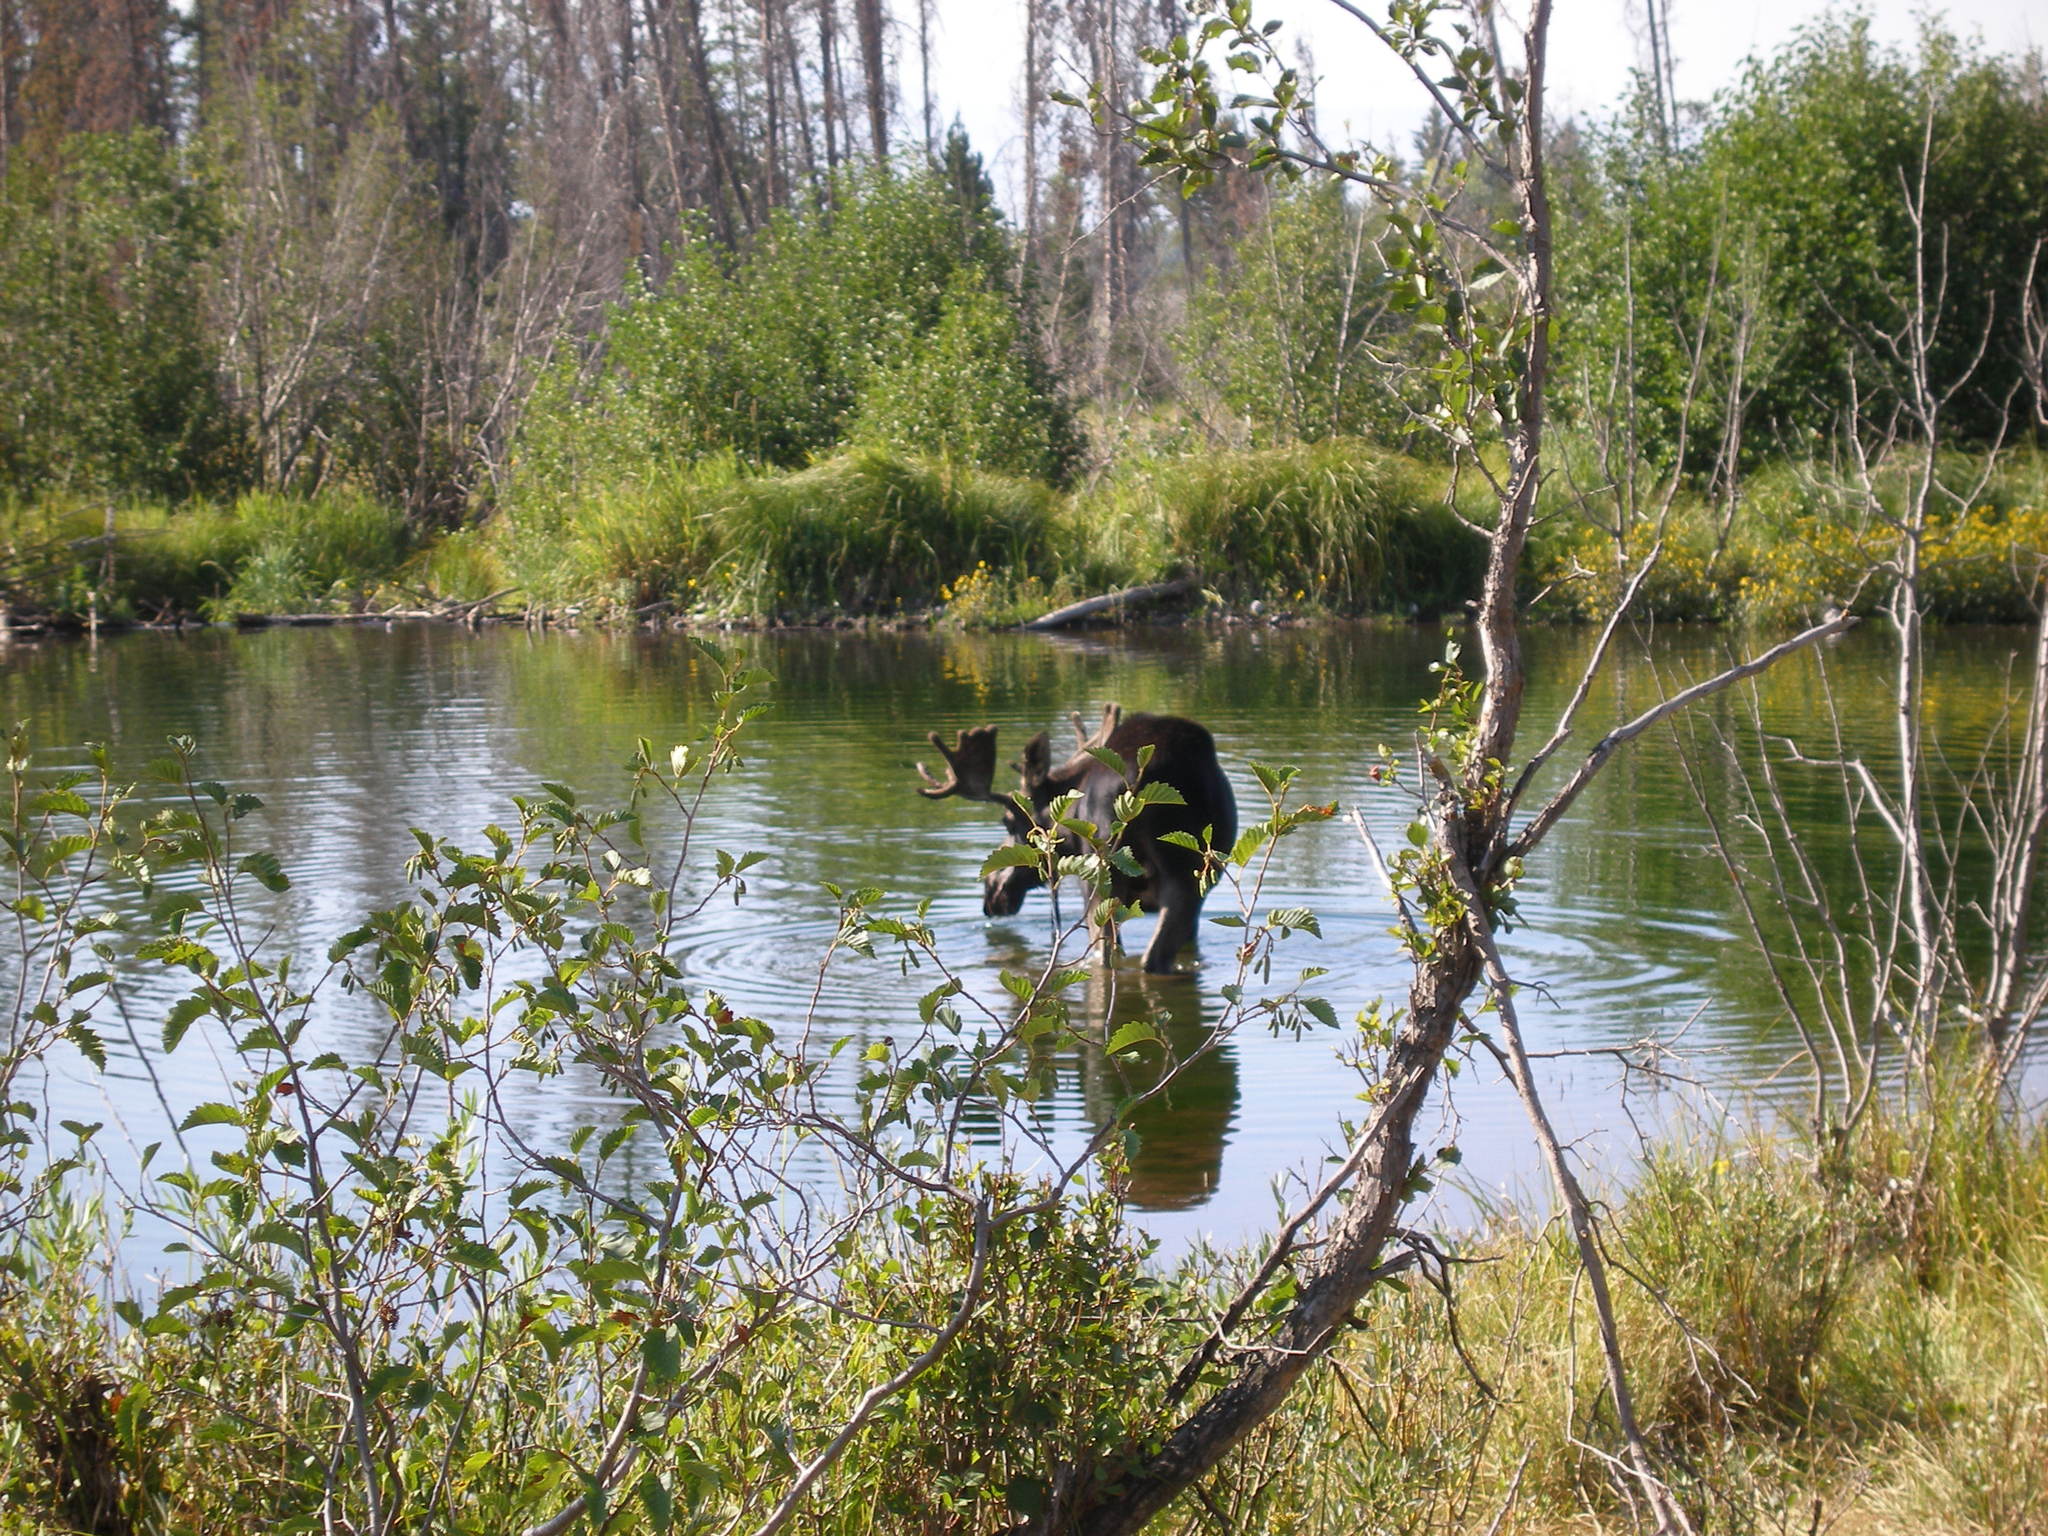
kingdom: Animalia
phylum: Chordata
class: Mammalia
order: Artiodactyla
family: Cervidae
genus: Alces
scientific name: Alces alces
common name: Moose
